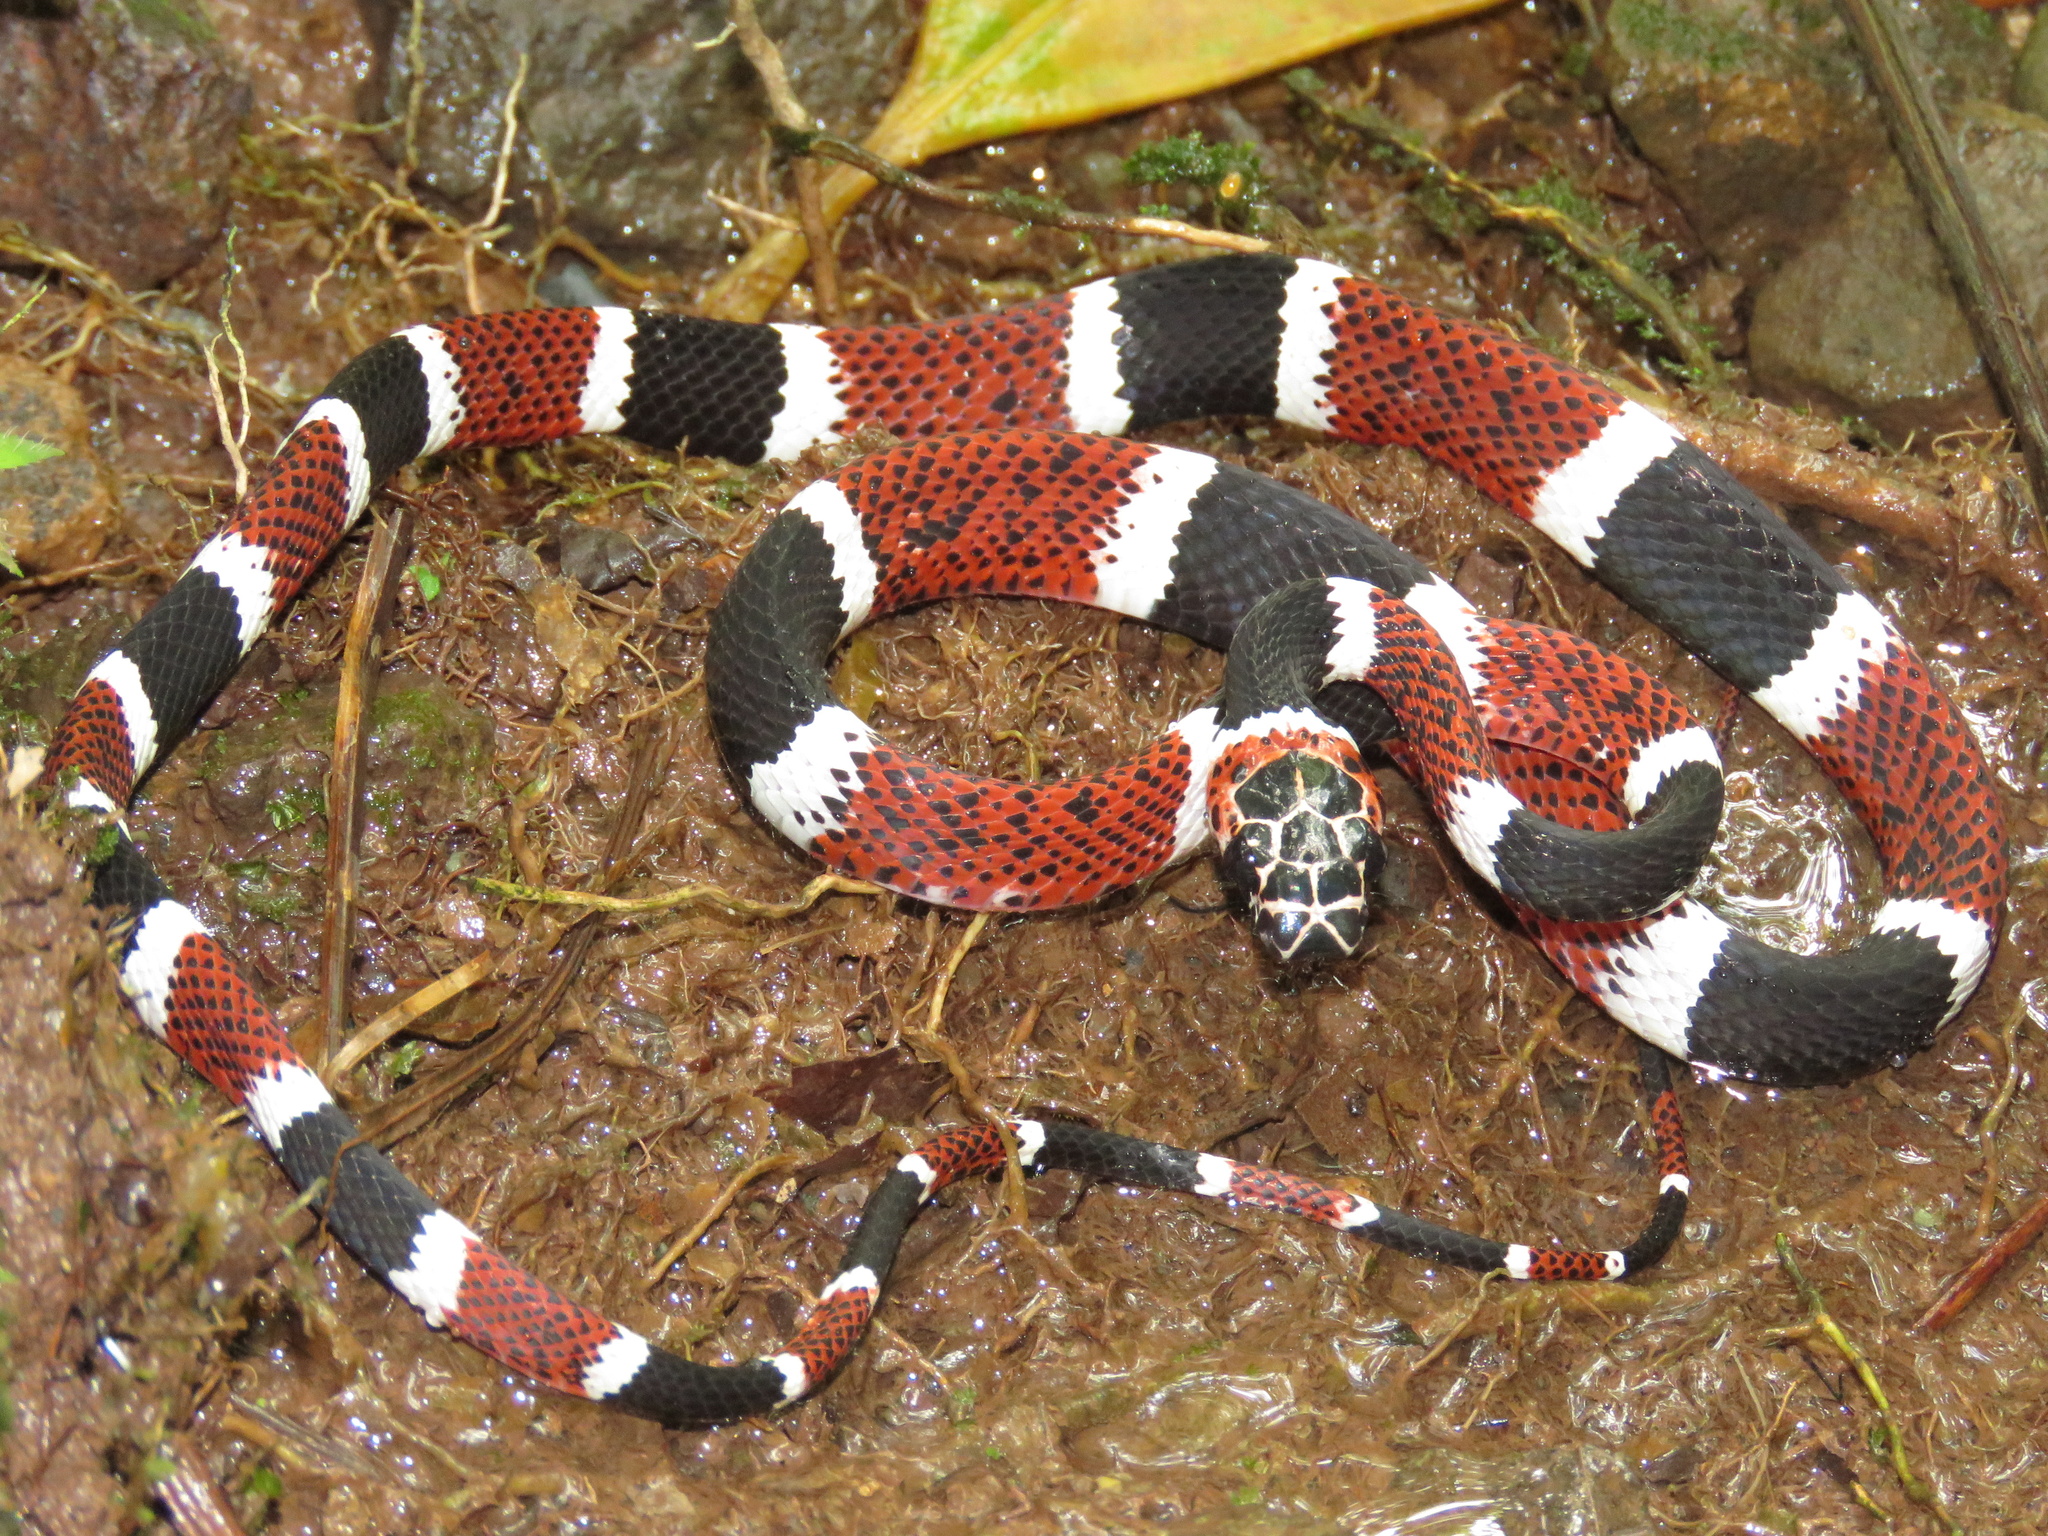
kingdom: Animalia
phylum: Chordata
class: Squamata
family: Colubridae
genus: Rhinobothryum
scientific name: Rhinobothryum bovallii
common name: False tree coral
